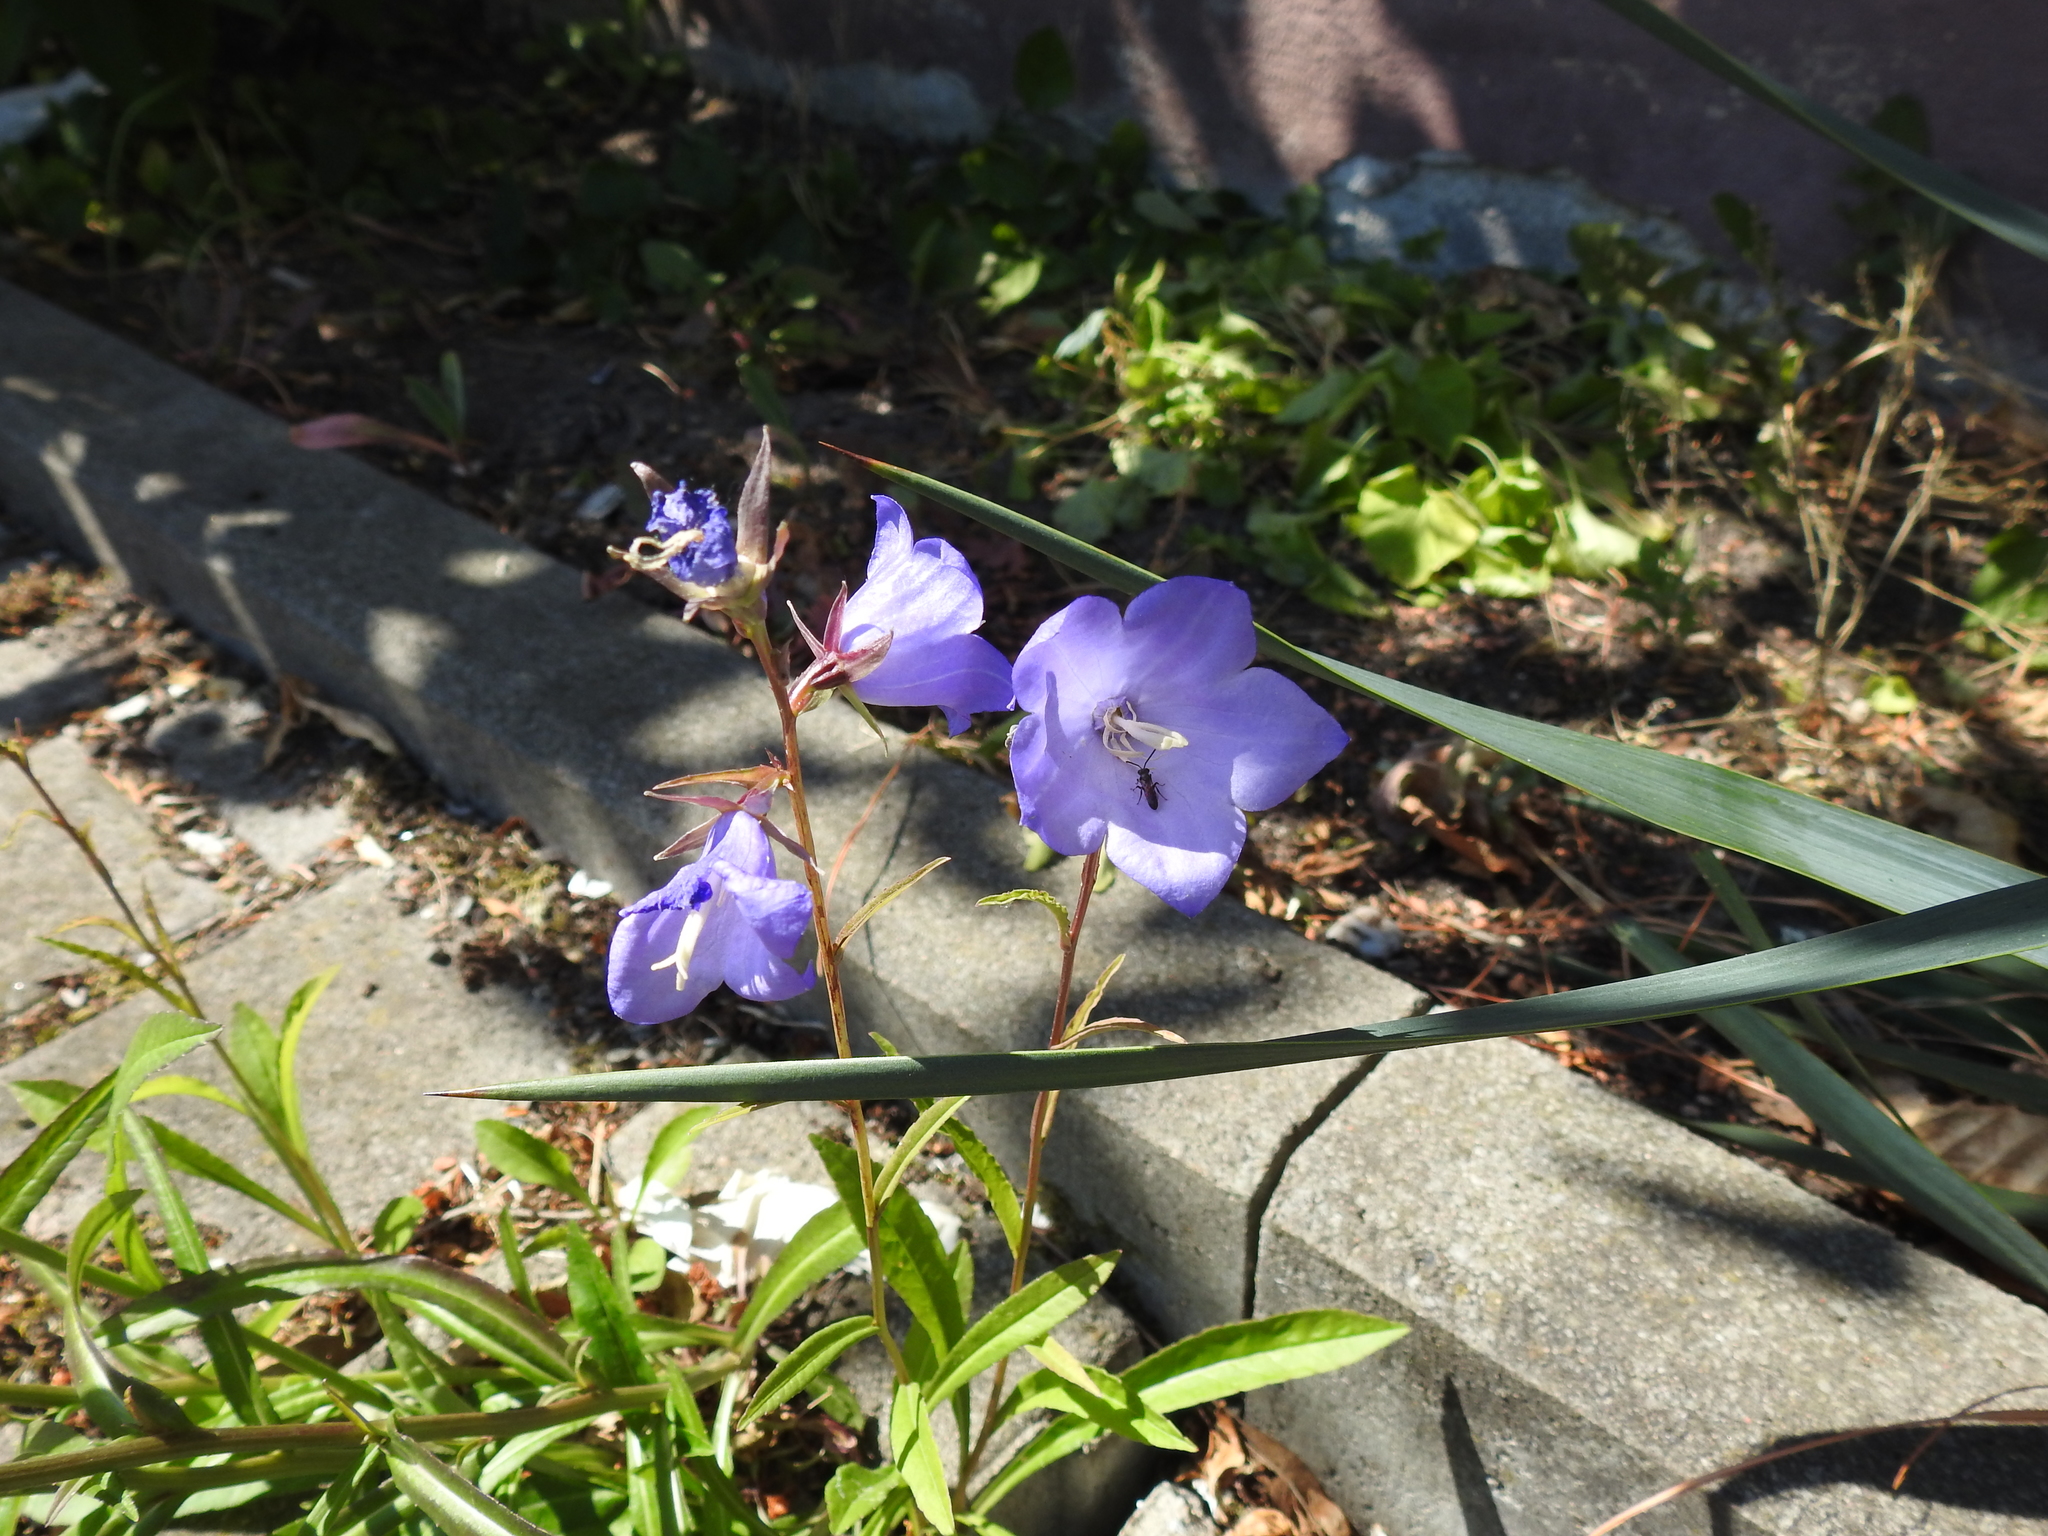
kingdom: Plantae
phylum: Tracheophyta
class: Magnoliopsida
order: Asterales
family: Campanulaceae
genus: Campanula
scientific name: Campanula persicifolia
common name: Peach-leaved bellflower
